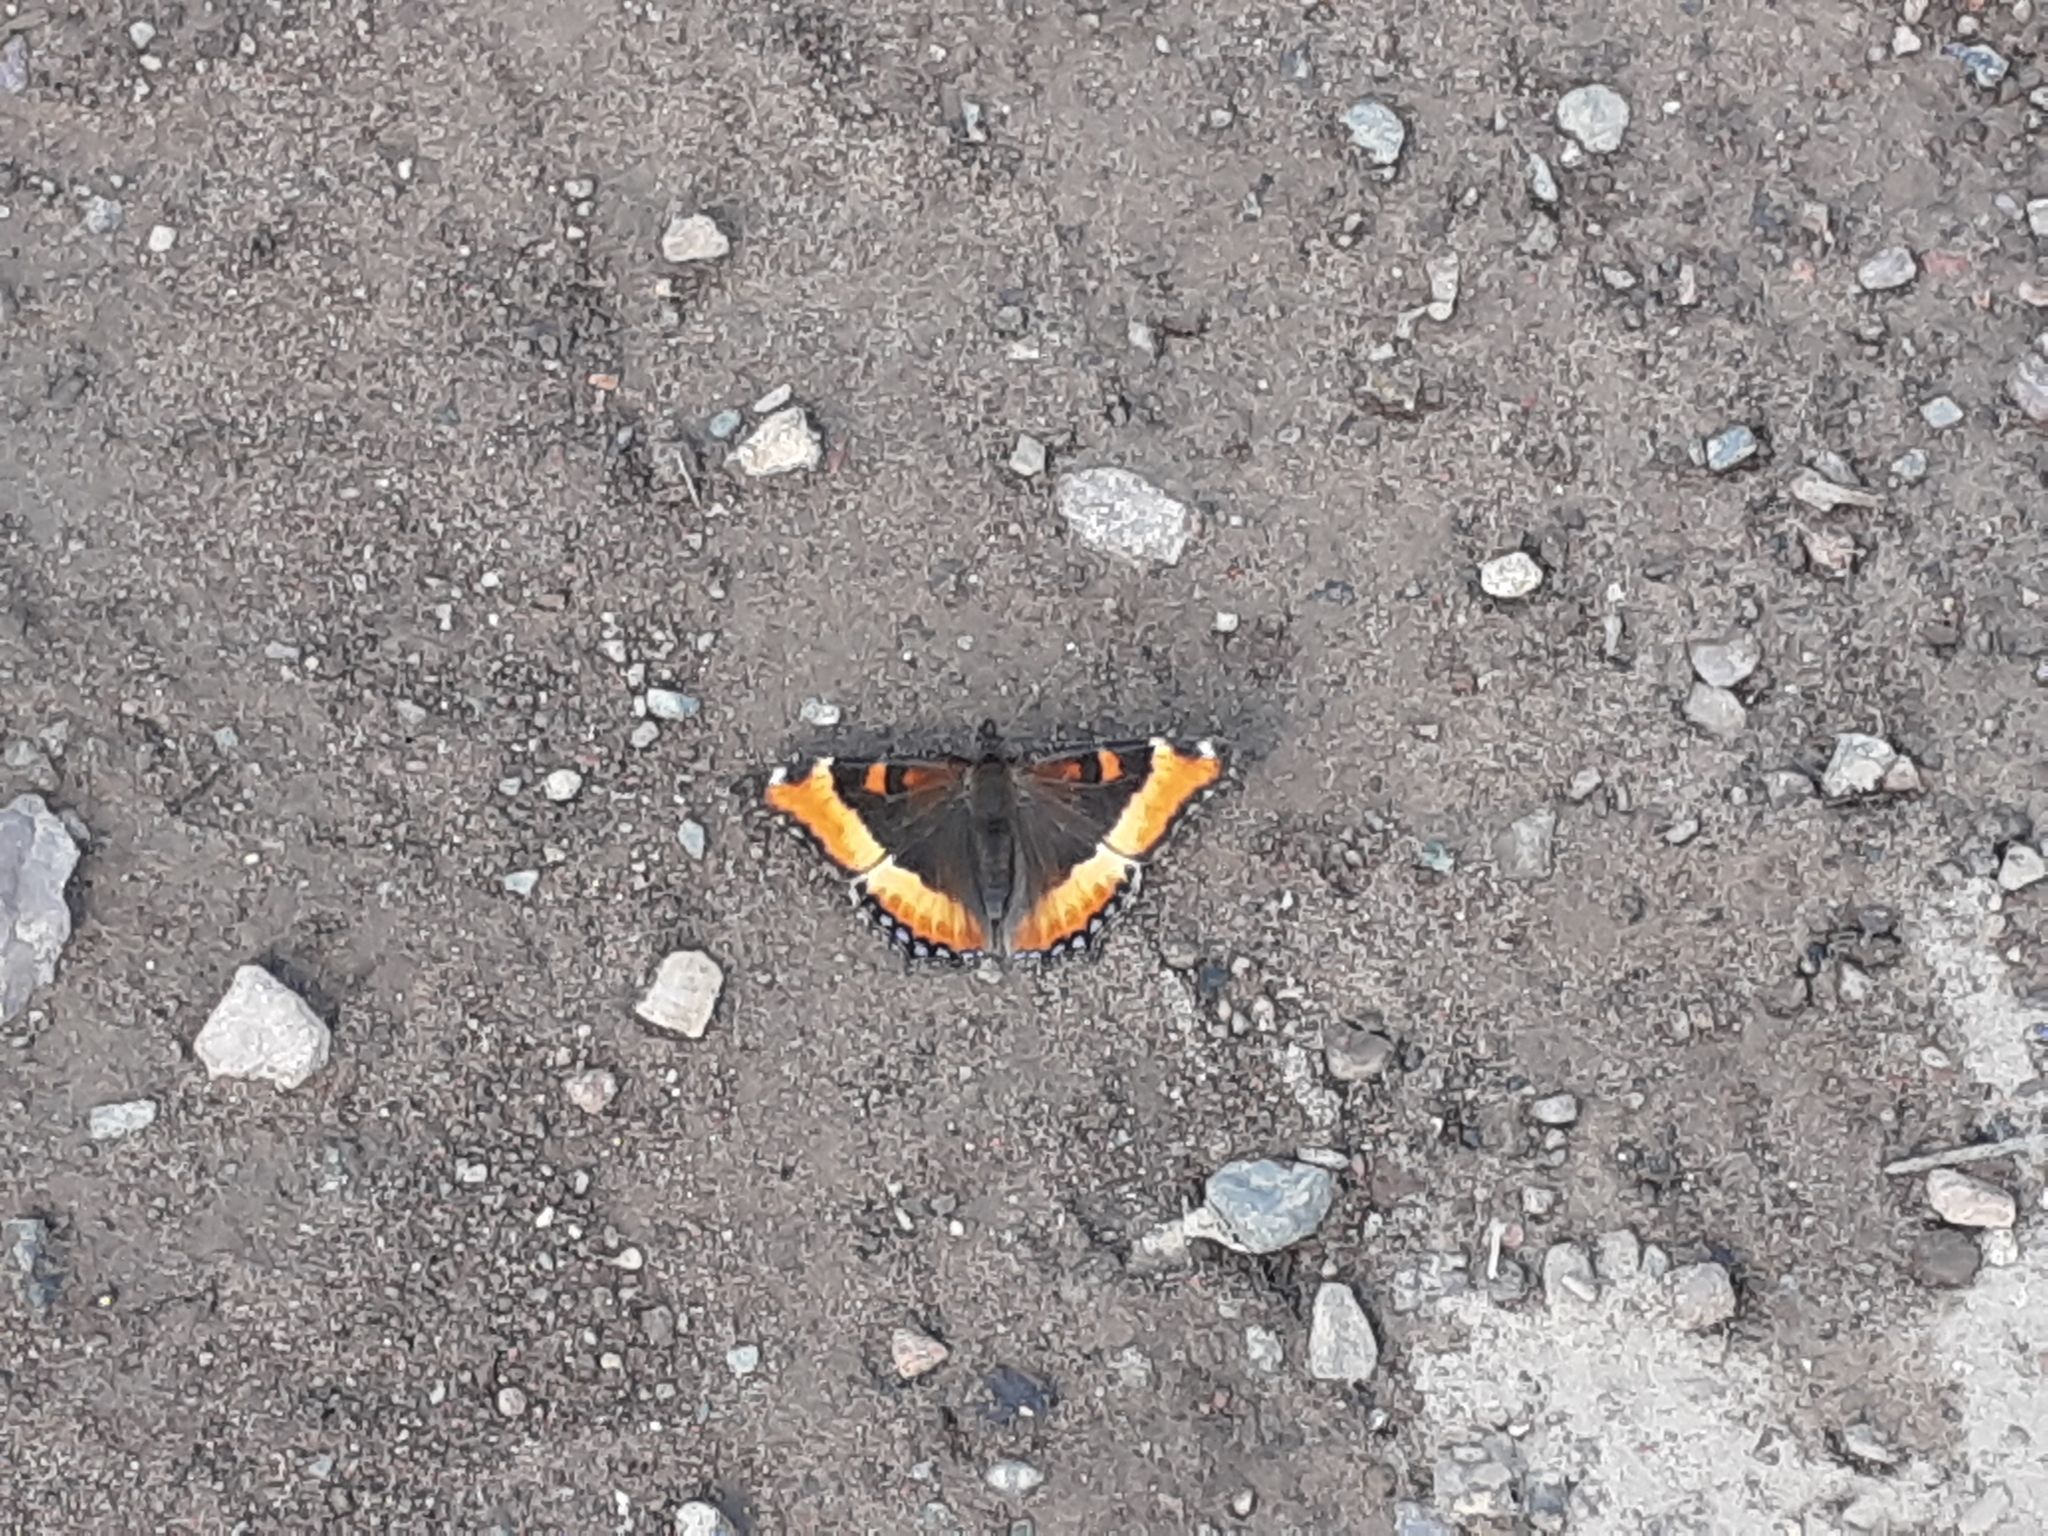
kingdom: Animalia
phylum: Arthropoda
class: Insecta
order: Lepidoptera
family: Nymphalidae
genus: Aglais
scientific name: Aglais milberti
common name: Milbert's tortoiseshell
